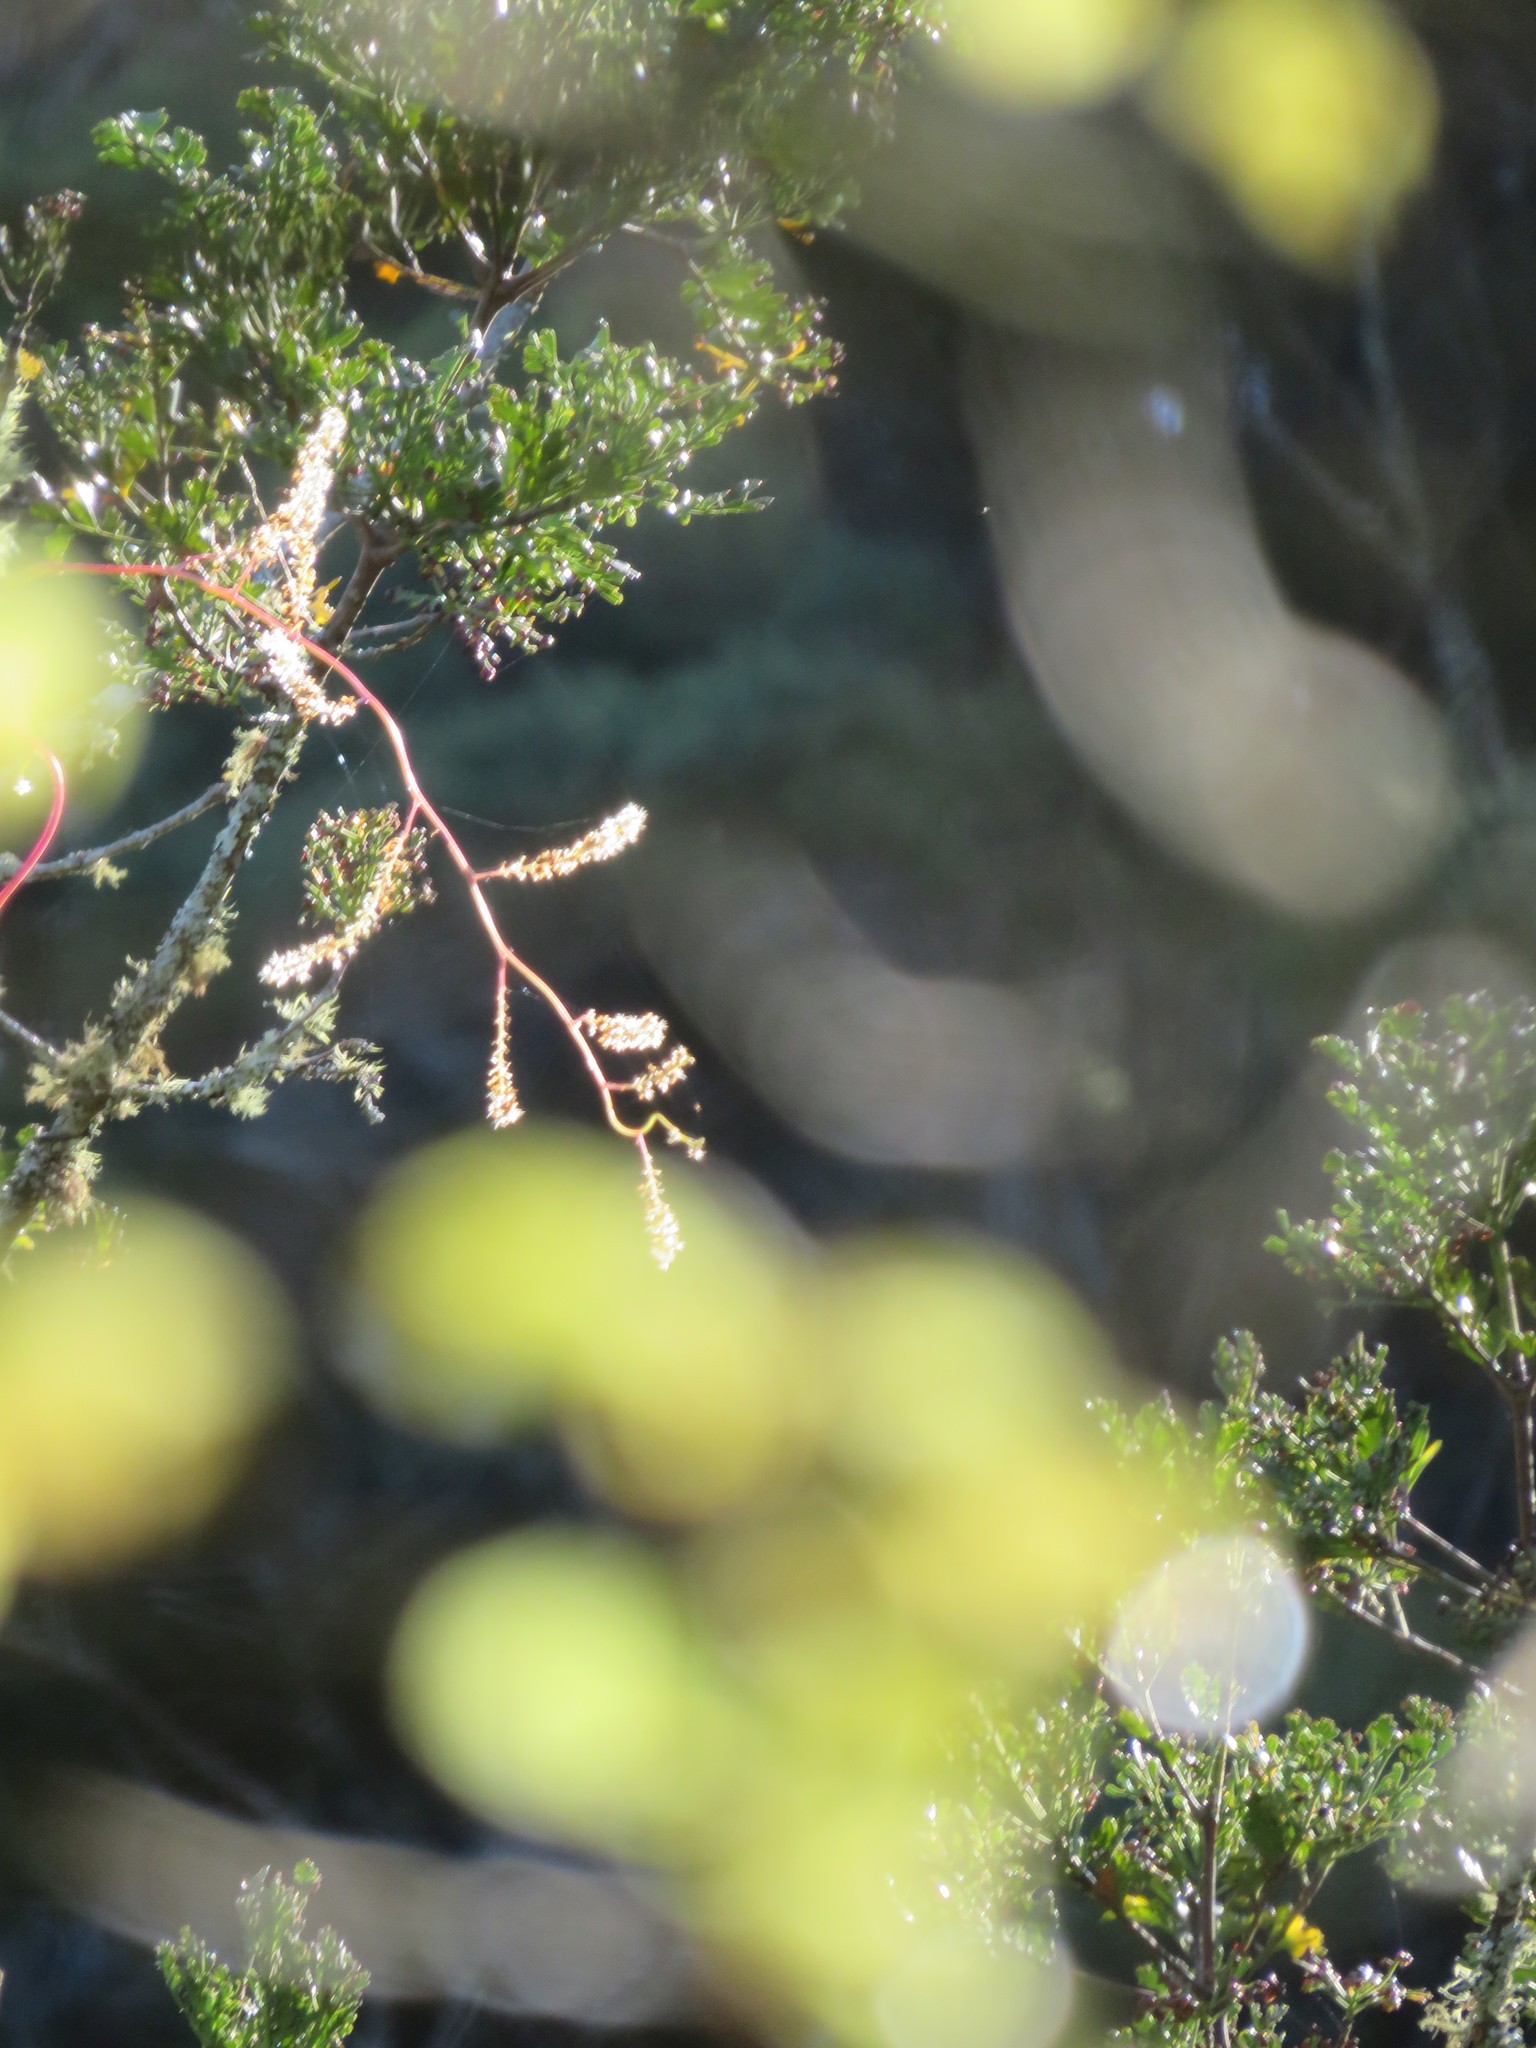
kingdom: Plantae
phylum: Tracheophyta
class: Magnoliopsida
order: Caryophyllales
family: Basellaceae
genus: Anredera
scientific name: Anredera cordifolia
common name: Heartleaf madeiravine
